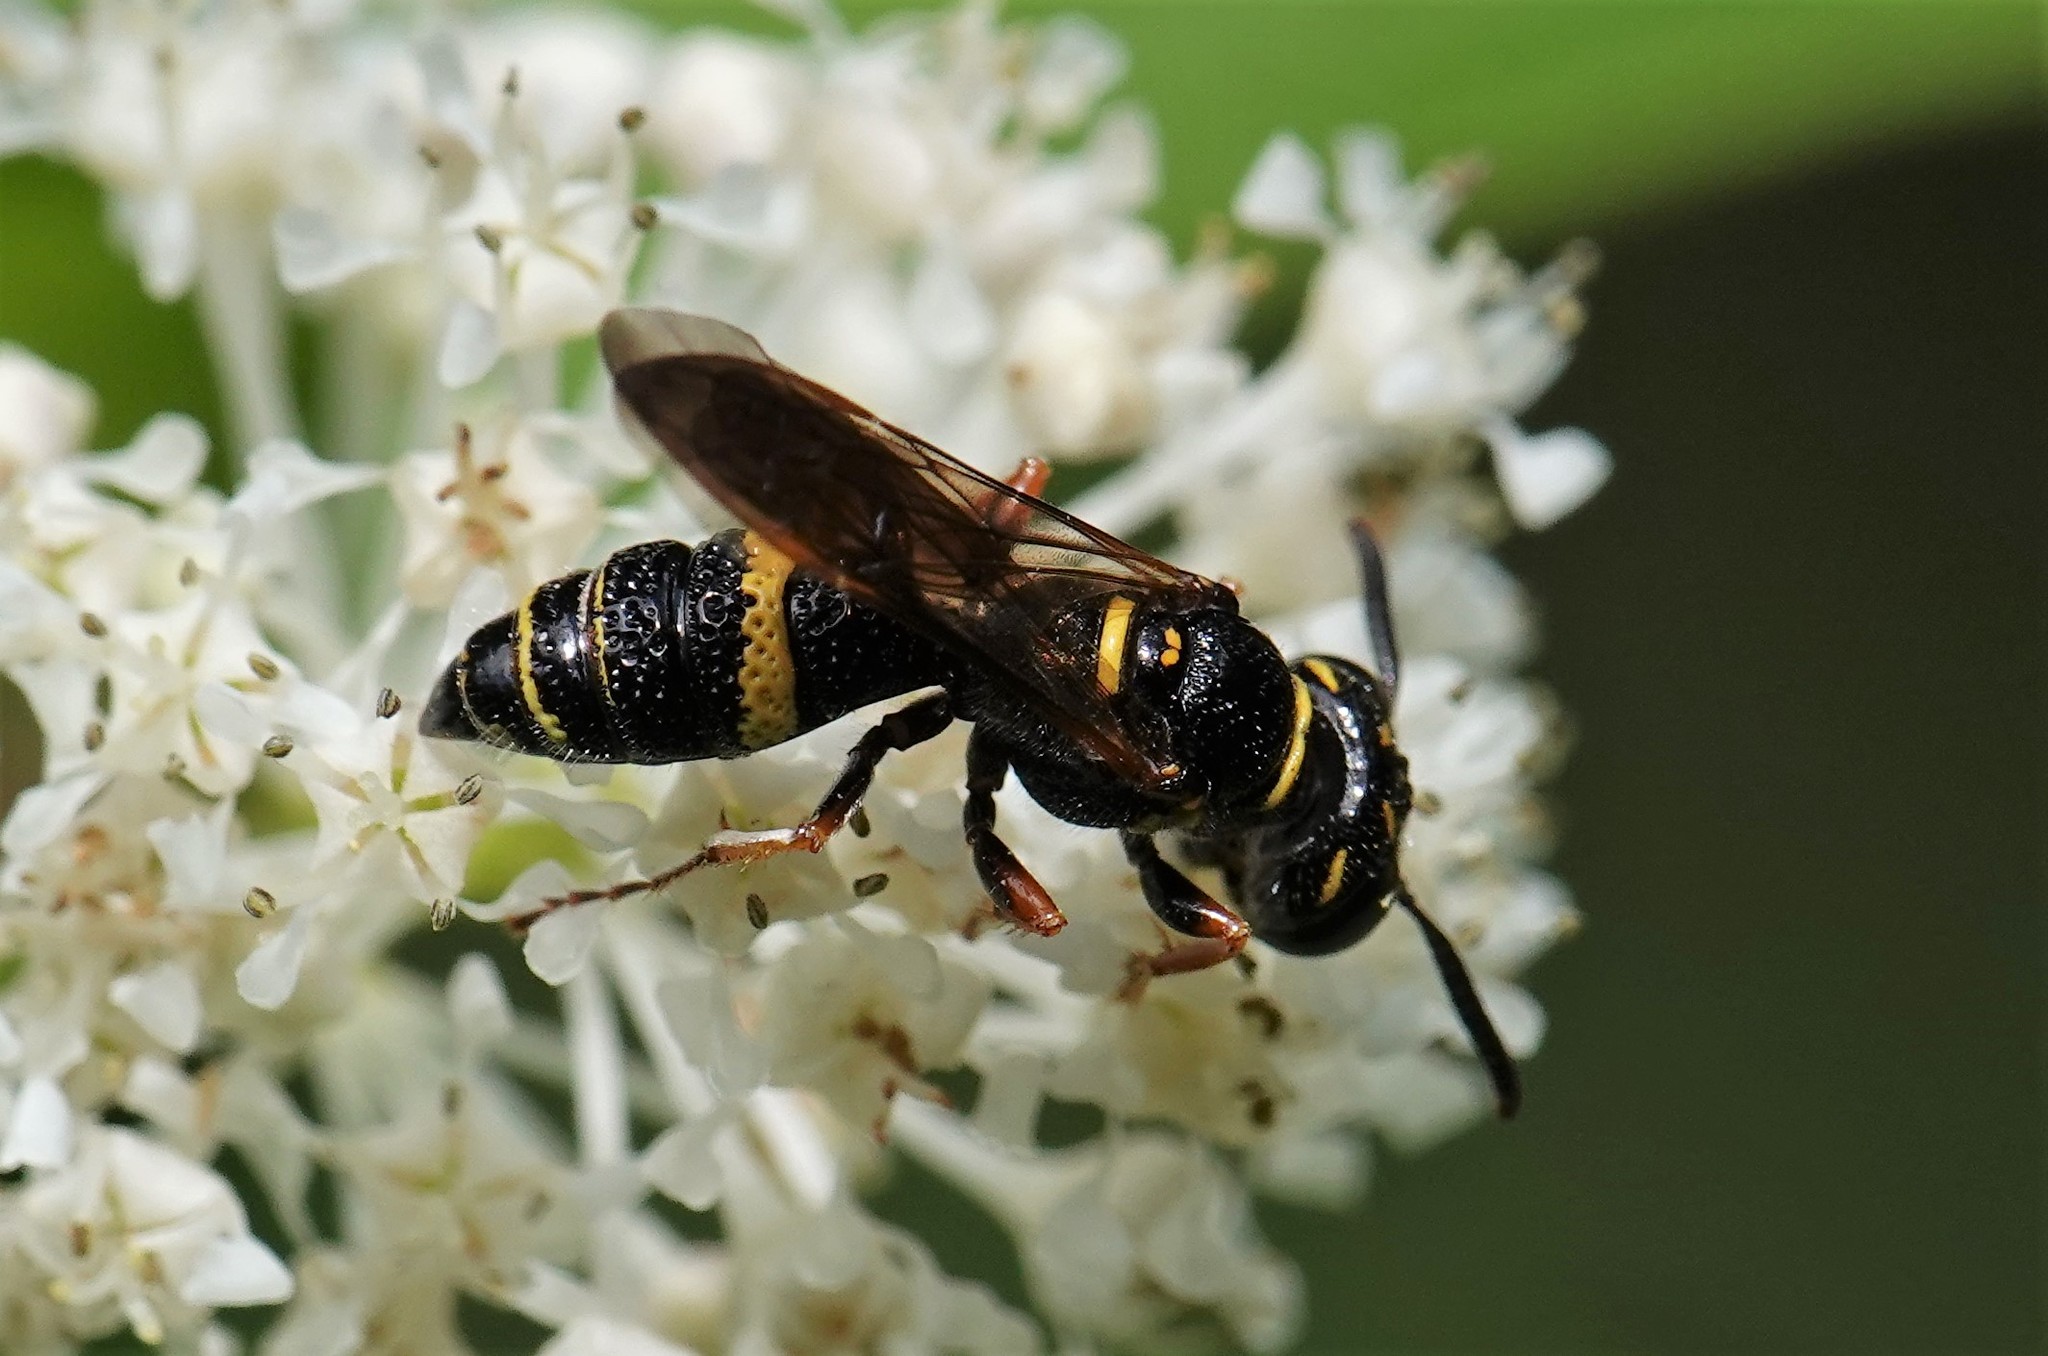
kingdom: Animalia
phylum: Arthropoda
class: Insecta
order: Hymenoptera
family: Crabronidae
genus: Philanthus
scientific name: Philanthus gibbosus
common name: Humped beewolf
